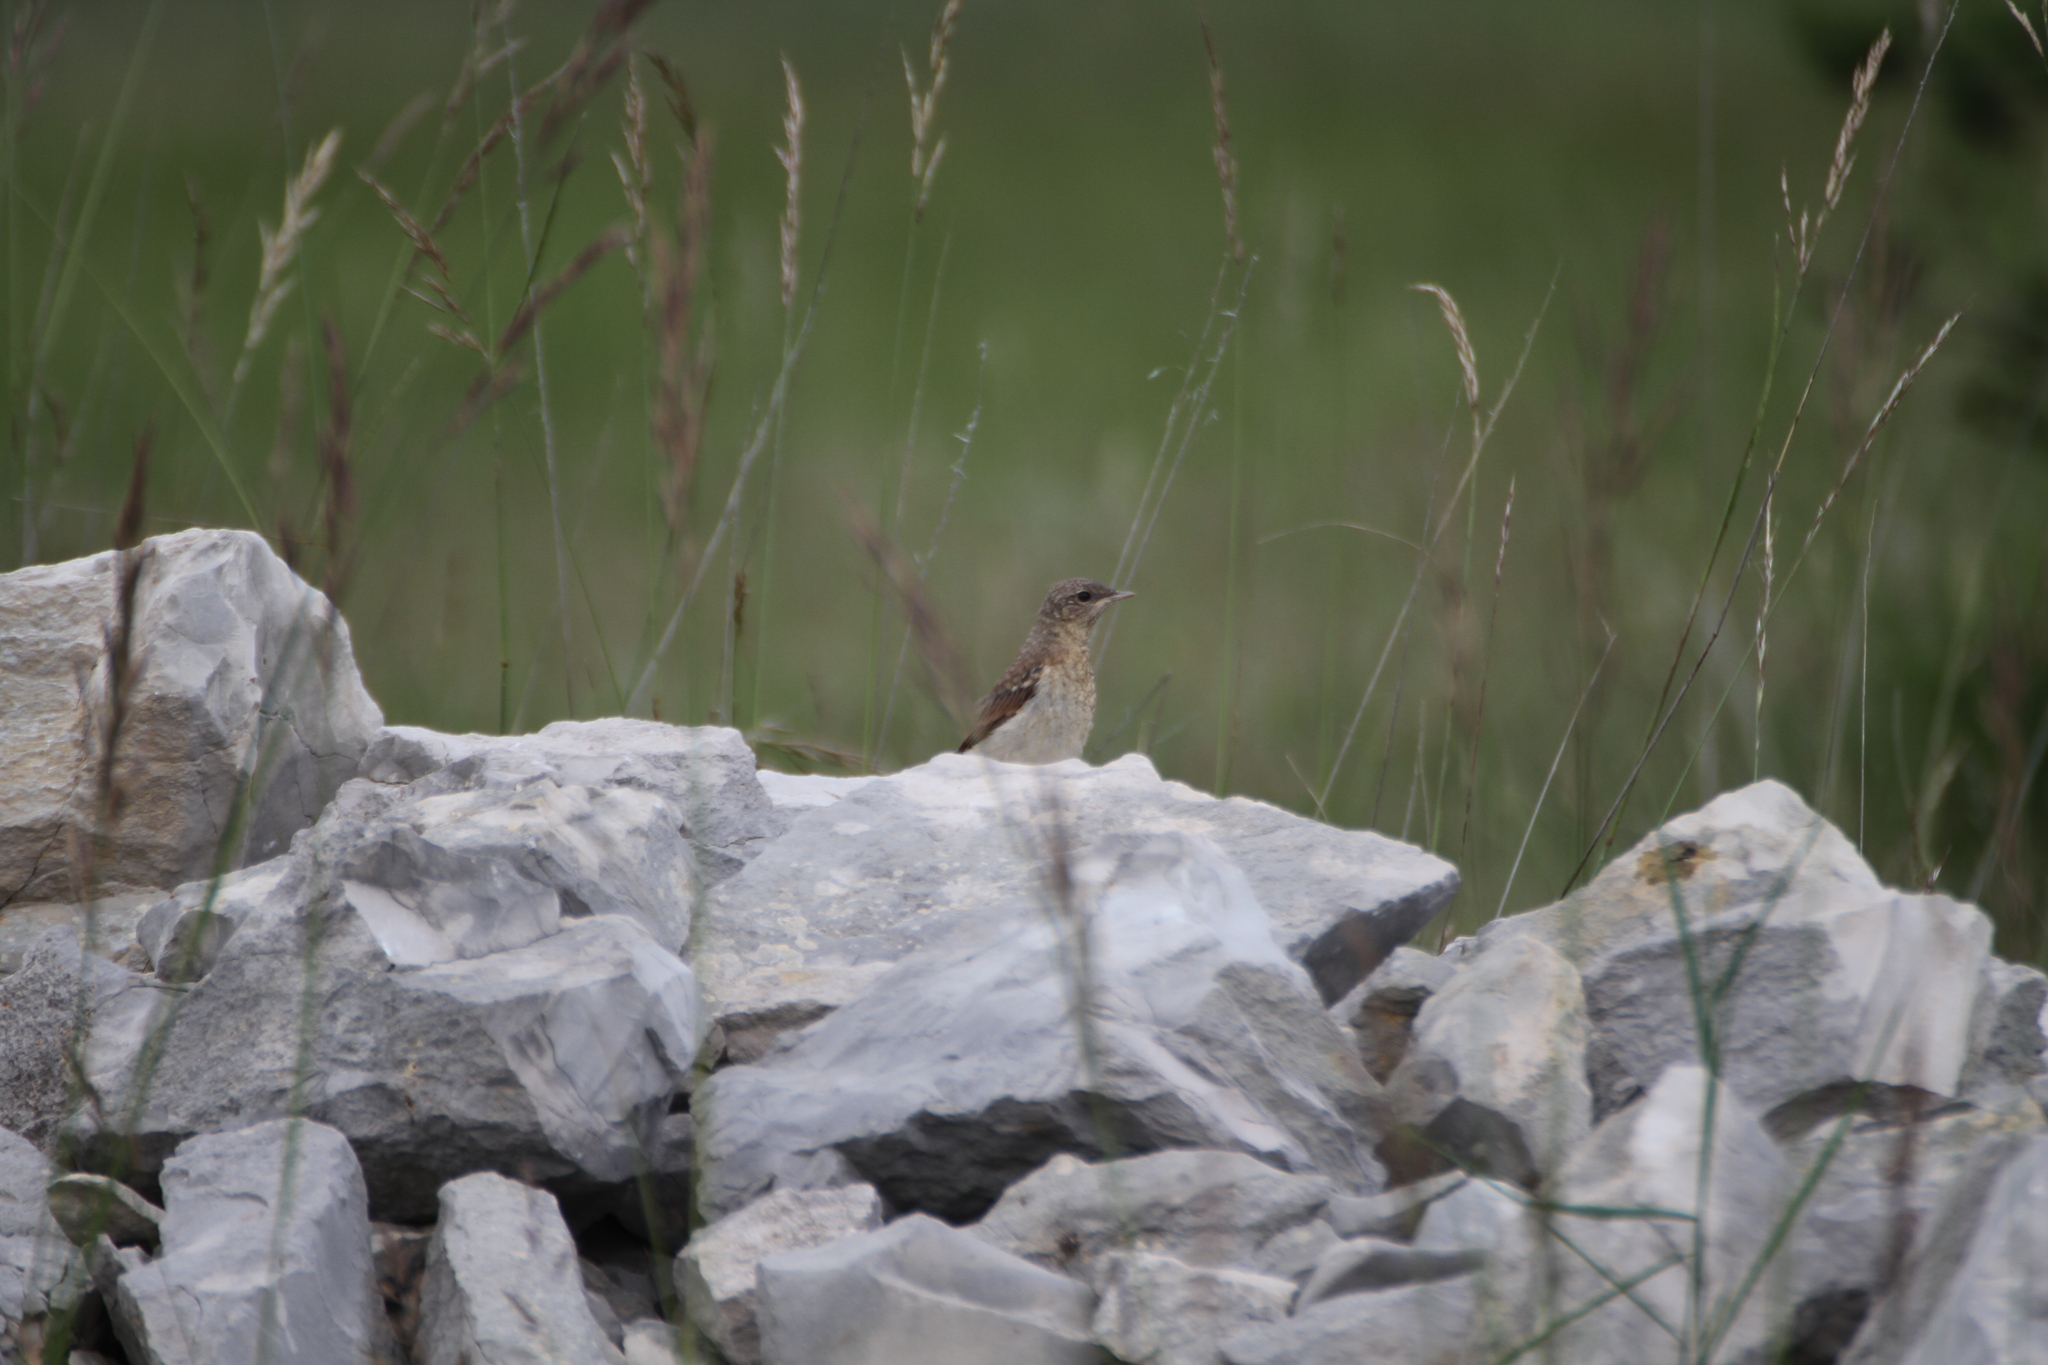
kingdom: Animalia
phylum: Chordata
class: Aves
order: Passeriformes
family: Muscicapidae
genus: Oenanthe
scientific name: Oenanthe oenanthe
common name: Northern wheatear
